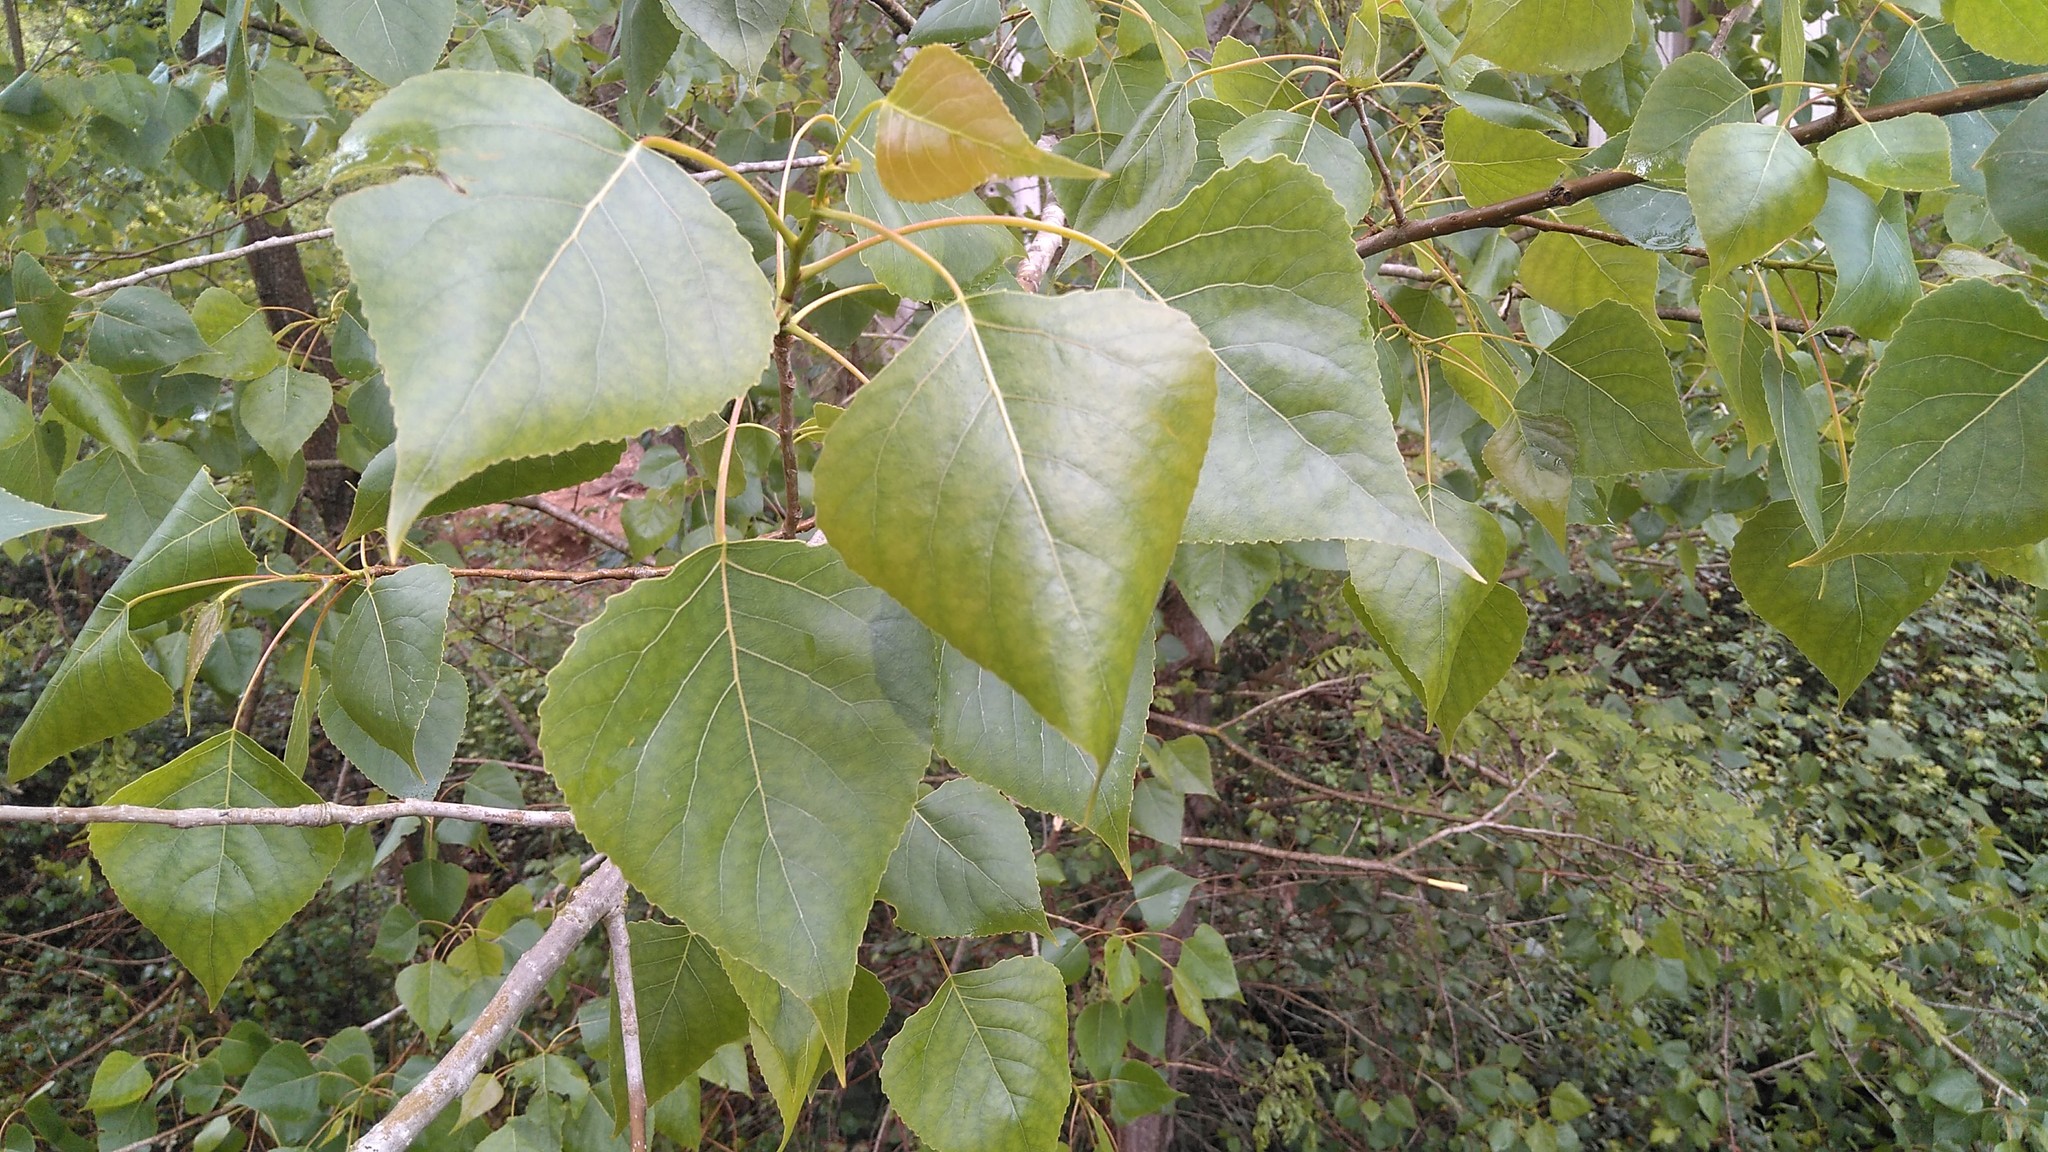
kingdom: Plantae
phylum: Tracheophyta
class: Magnoliopsida
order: Malpighiales
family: Salicaceae
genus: Populus
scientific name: Populus canadensis
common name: Carolina poplar
